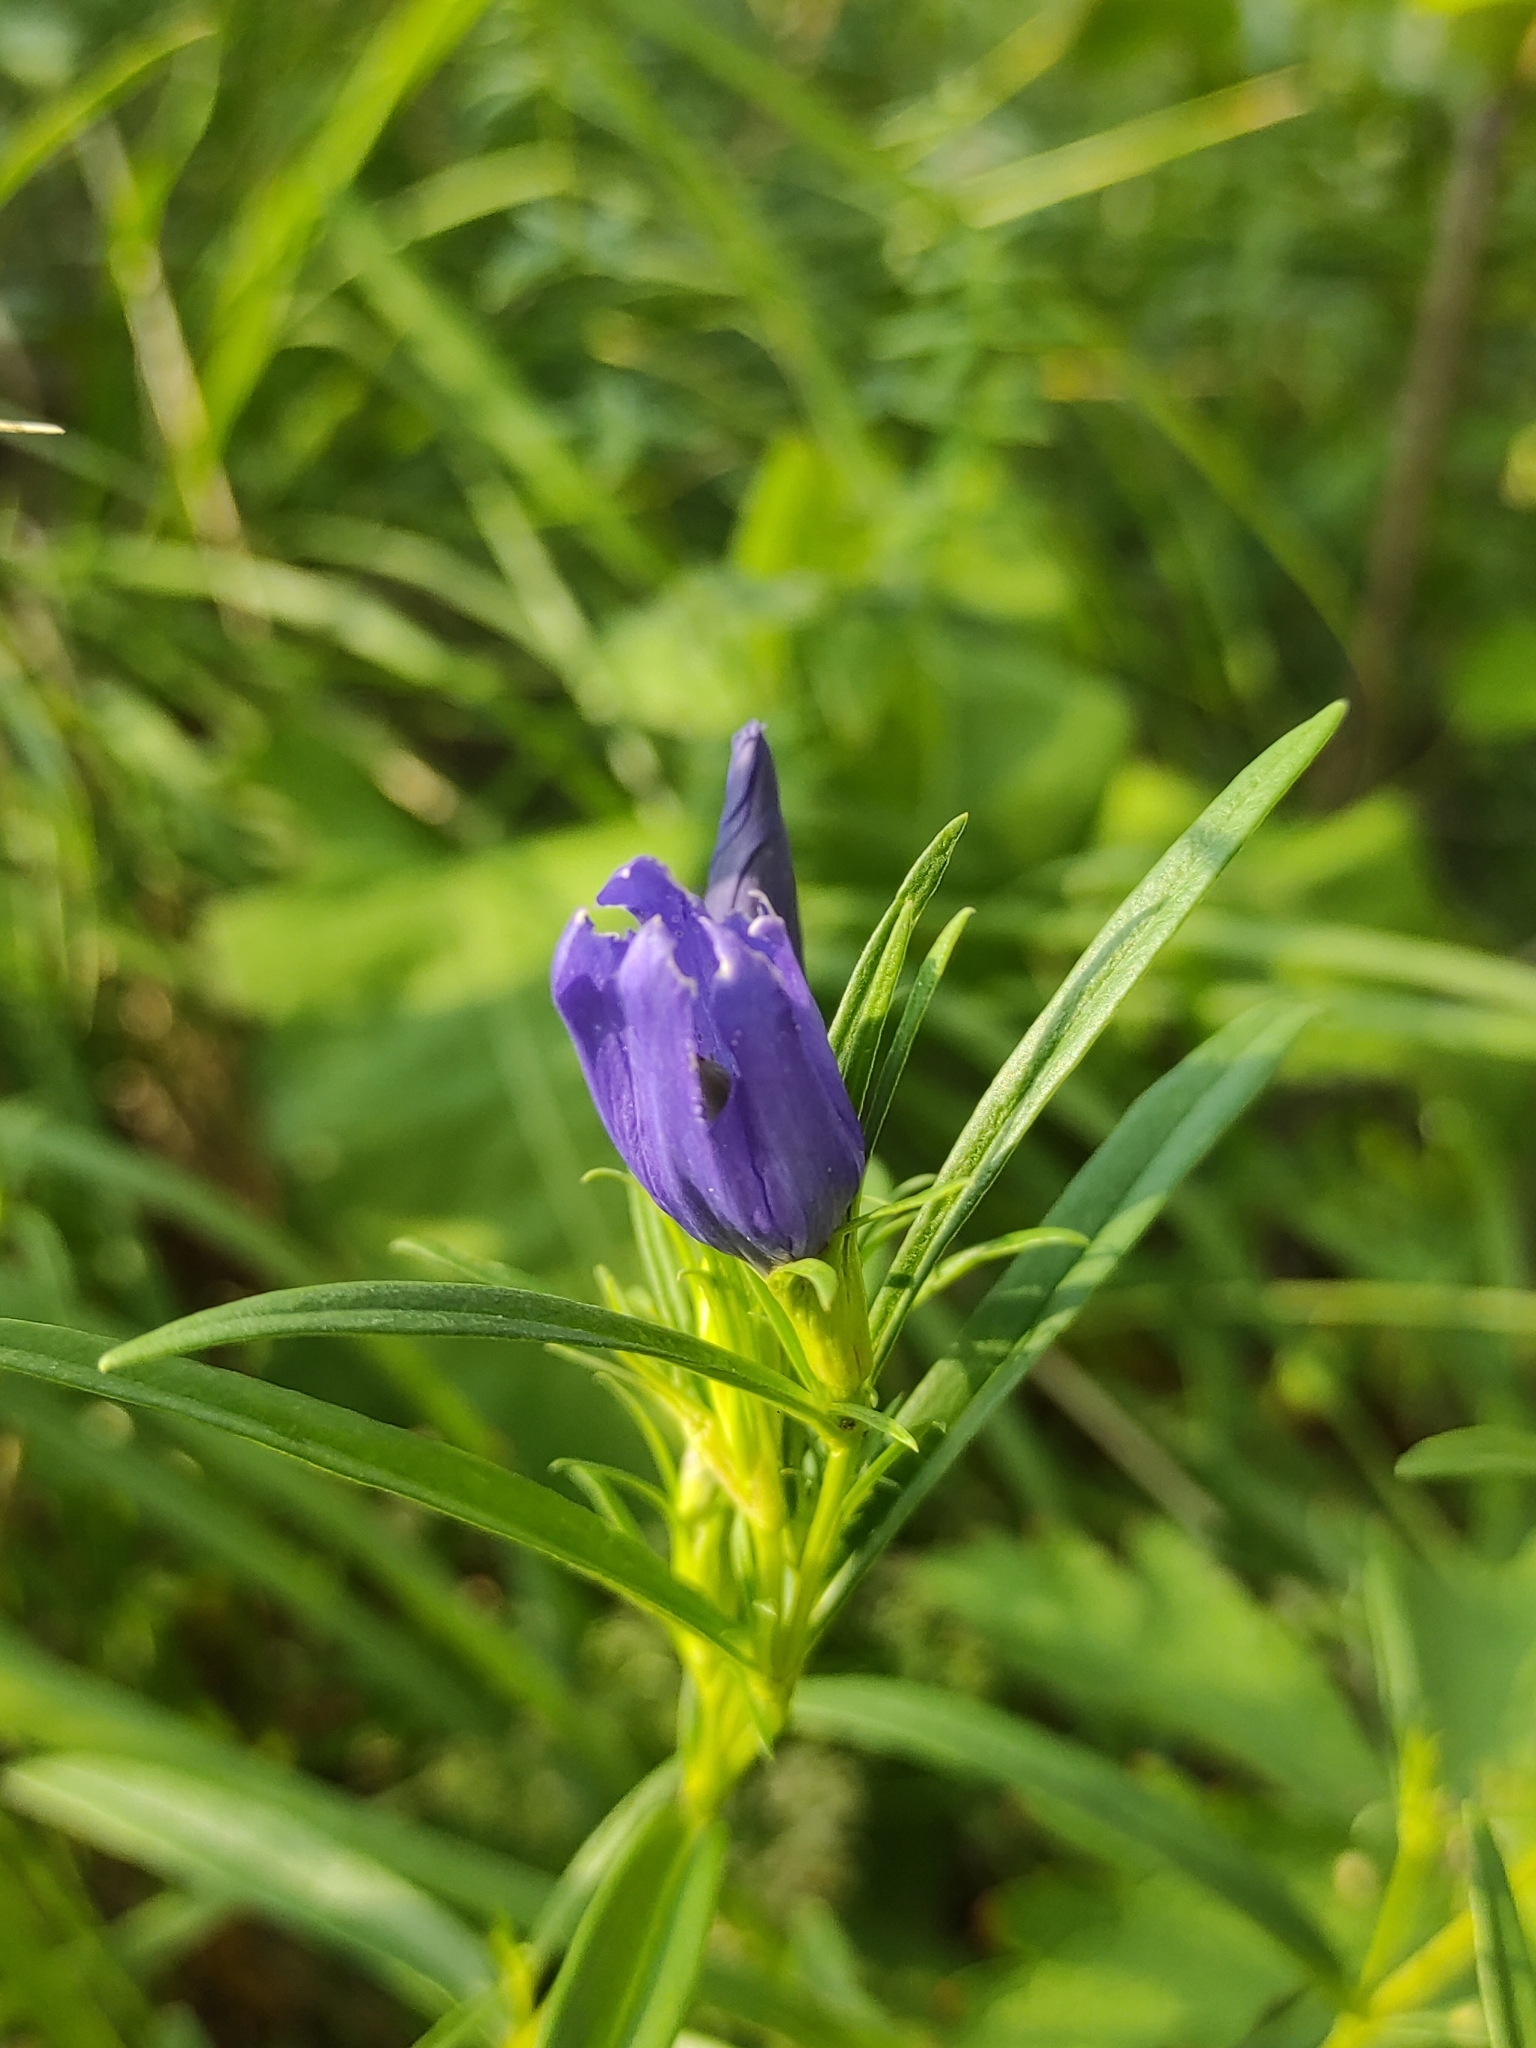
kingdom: Plantae
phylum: Tracheophyta
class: Magnoliopsida
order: Gentianales
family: Gentianaceae
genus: Gentiana
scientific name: Gentiana pneumonanthe
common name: Marsh gentian
